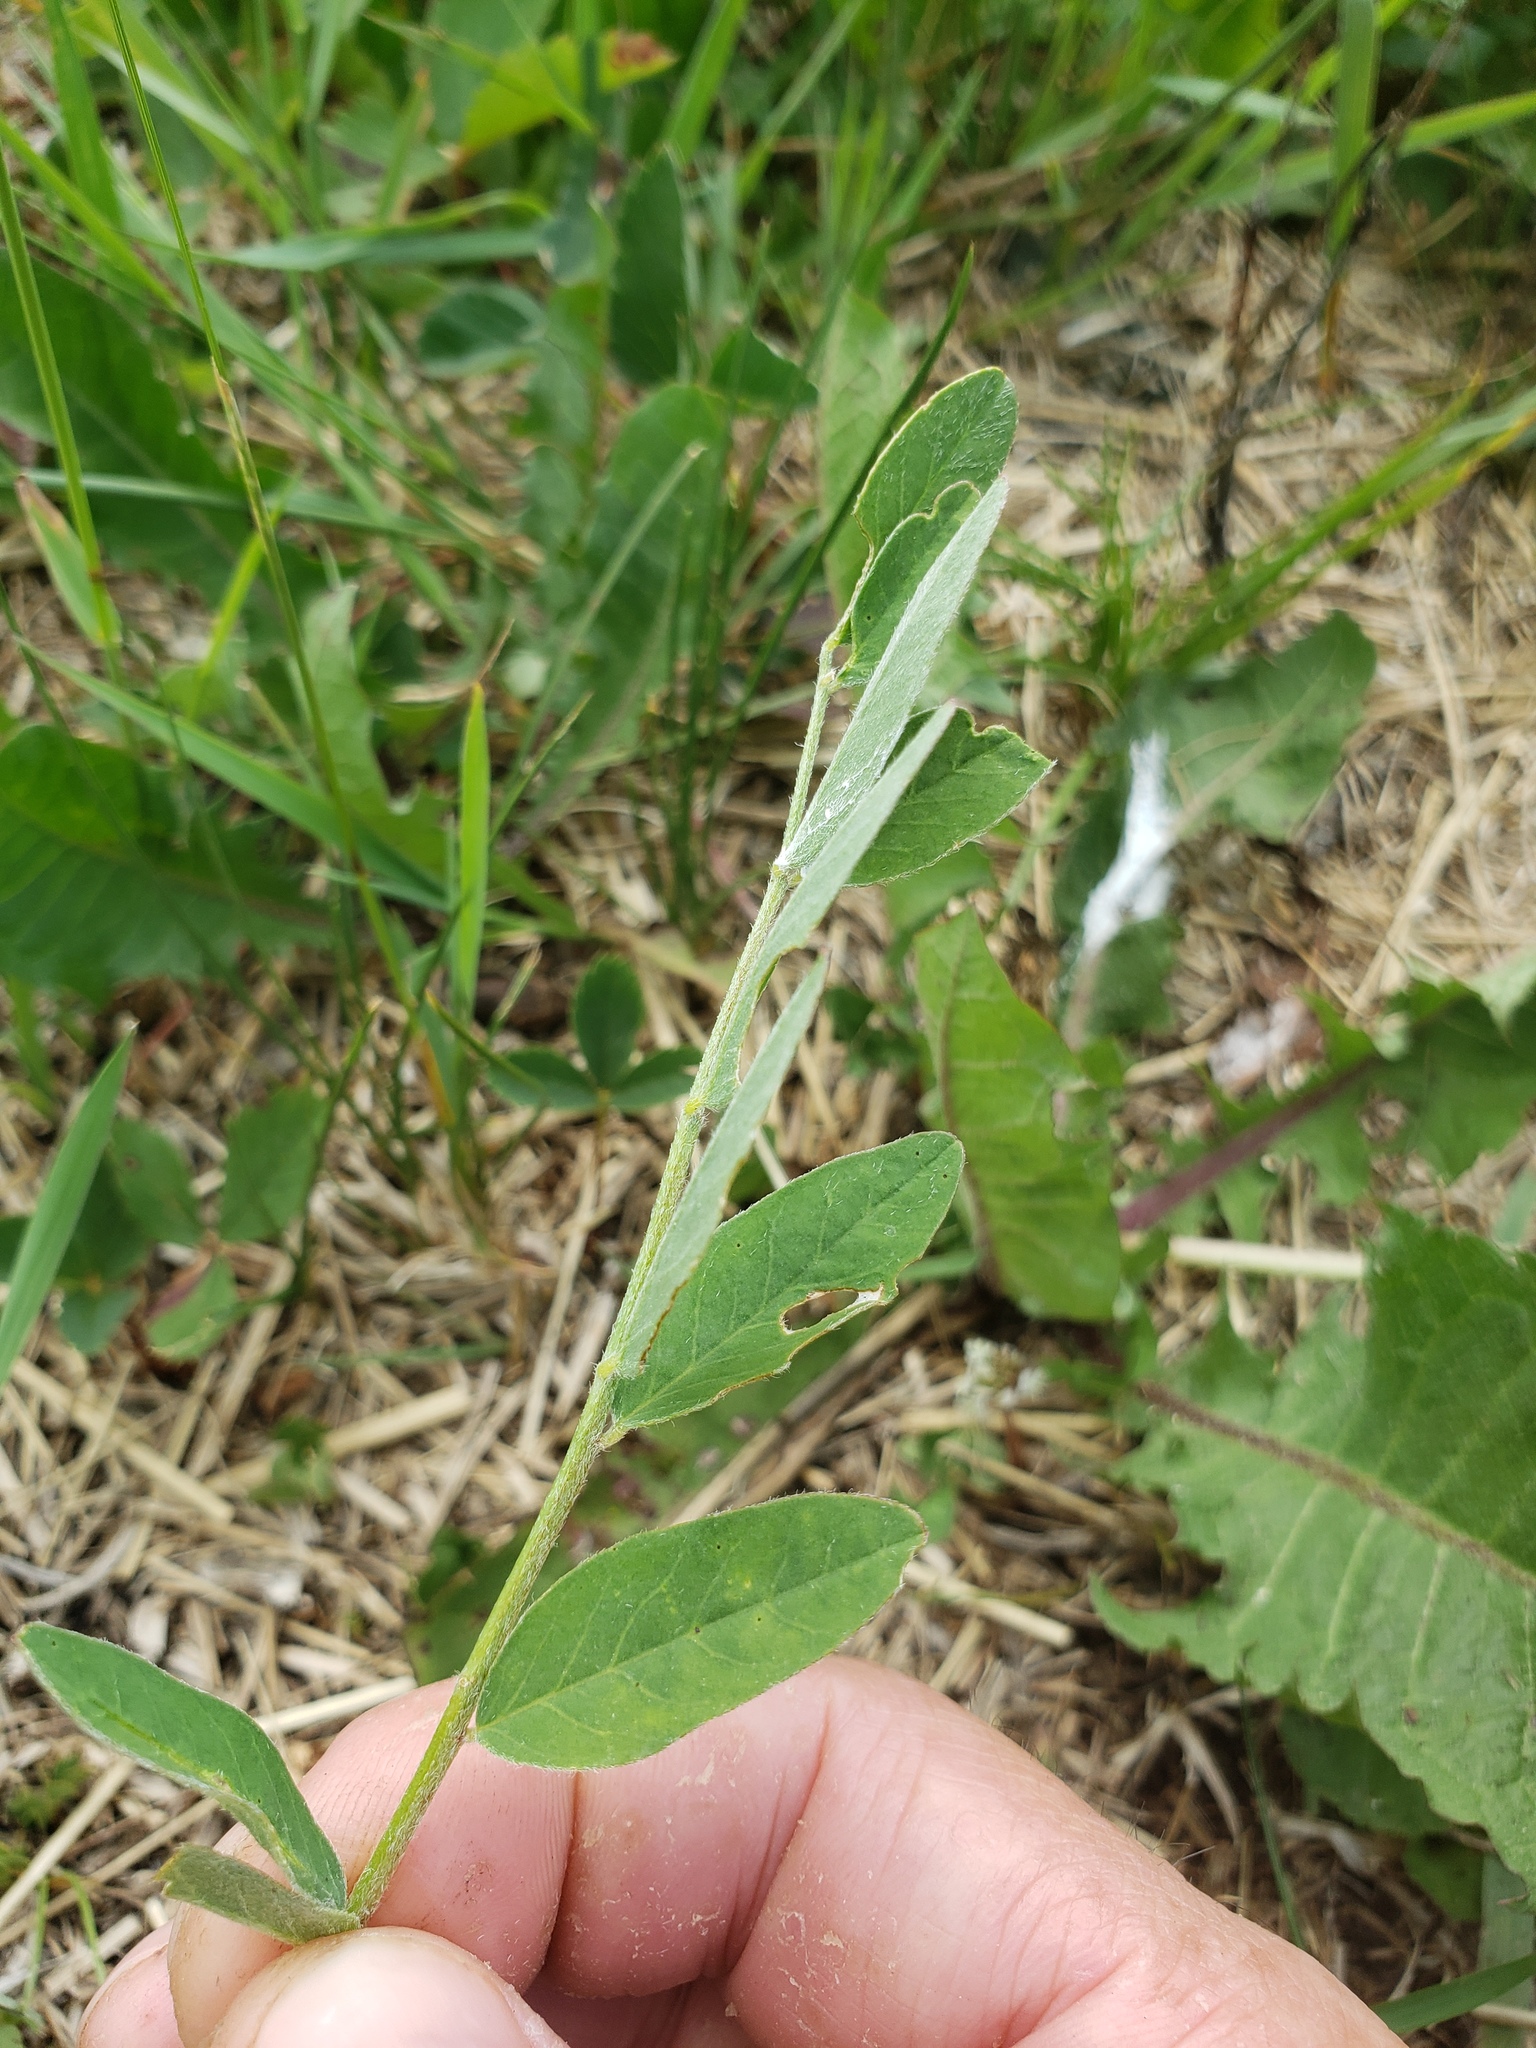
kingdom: Plantae
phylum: Tracheophyta
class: Magnoliopsida
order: Fabales
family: Fabaceae
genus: Astragalus
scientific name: Astragalus canadensis
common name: Canada milk-vetch
